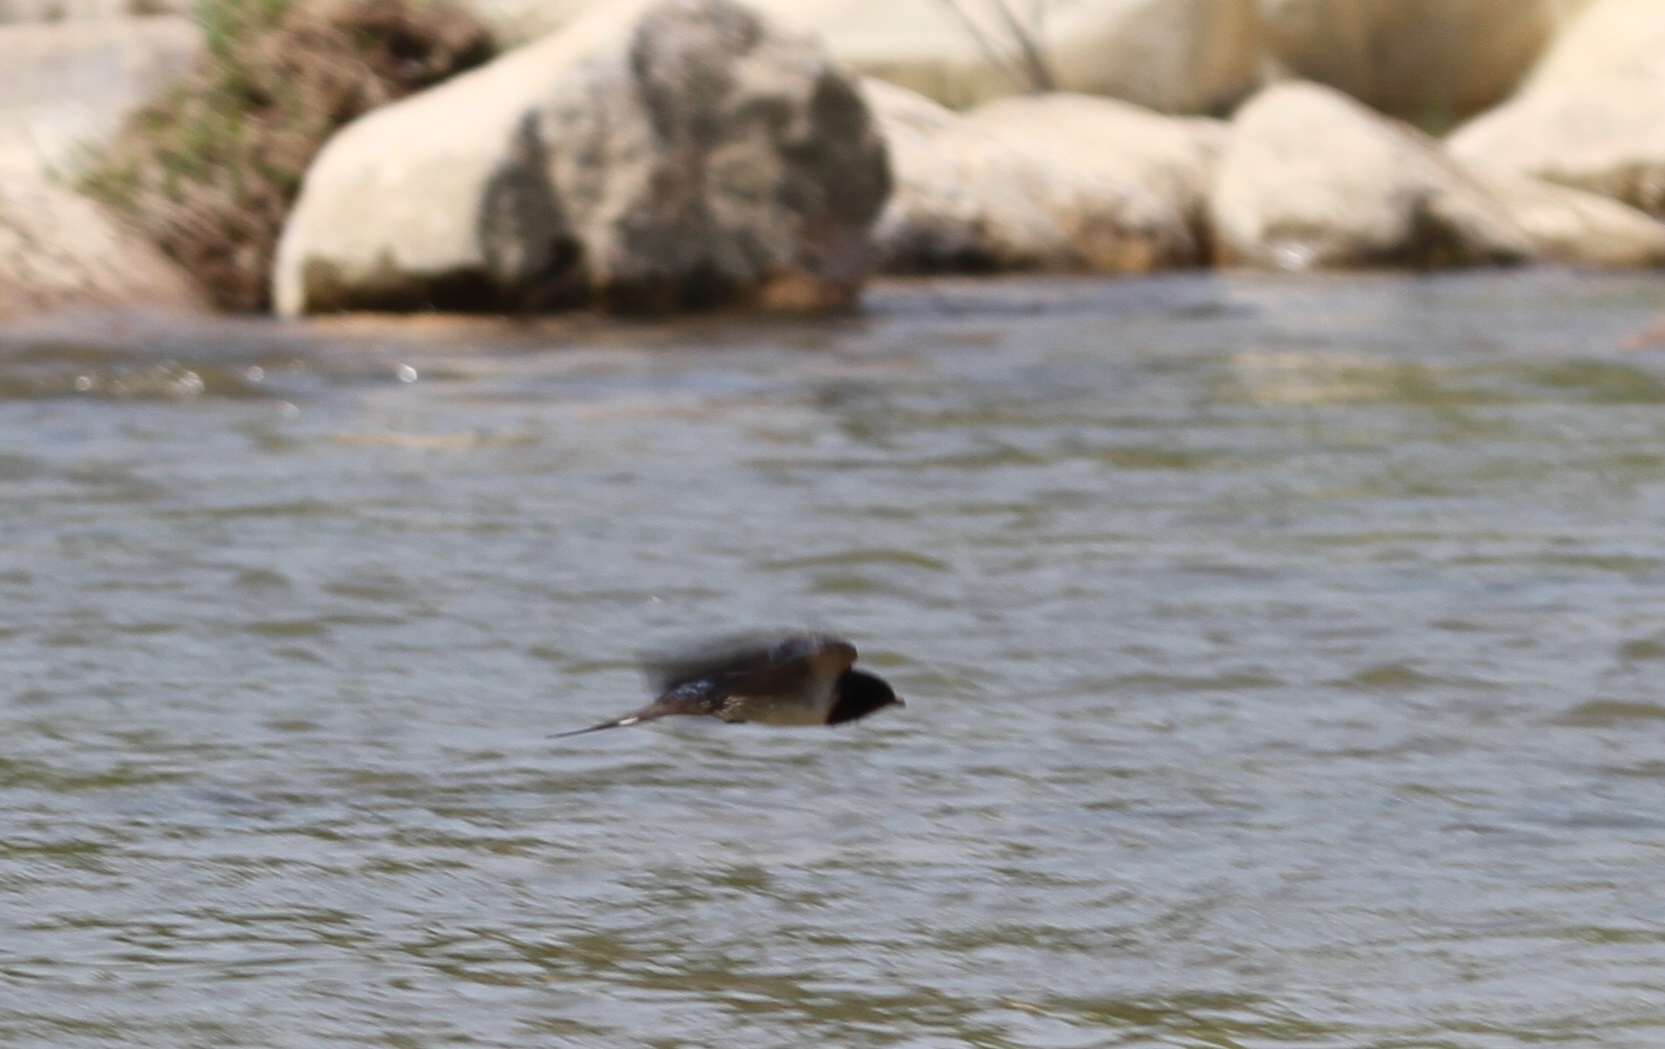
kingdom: Animalia
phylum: Chordata
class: Aves
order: Passeriformes
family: Hirundinidae
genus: Hirundo
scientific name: Hirundo rustica
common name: Barn swallow
